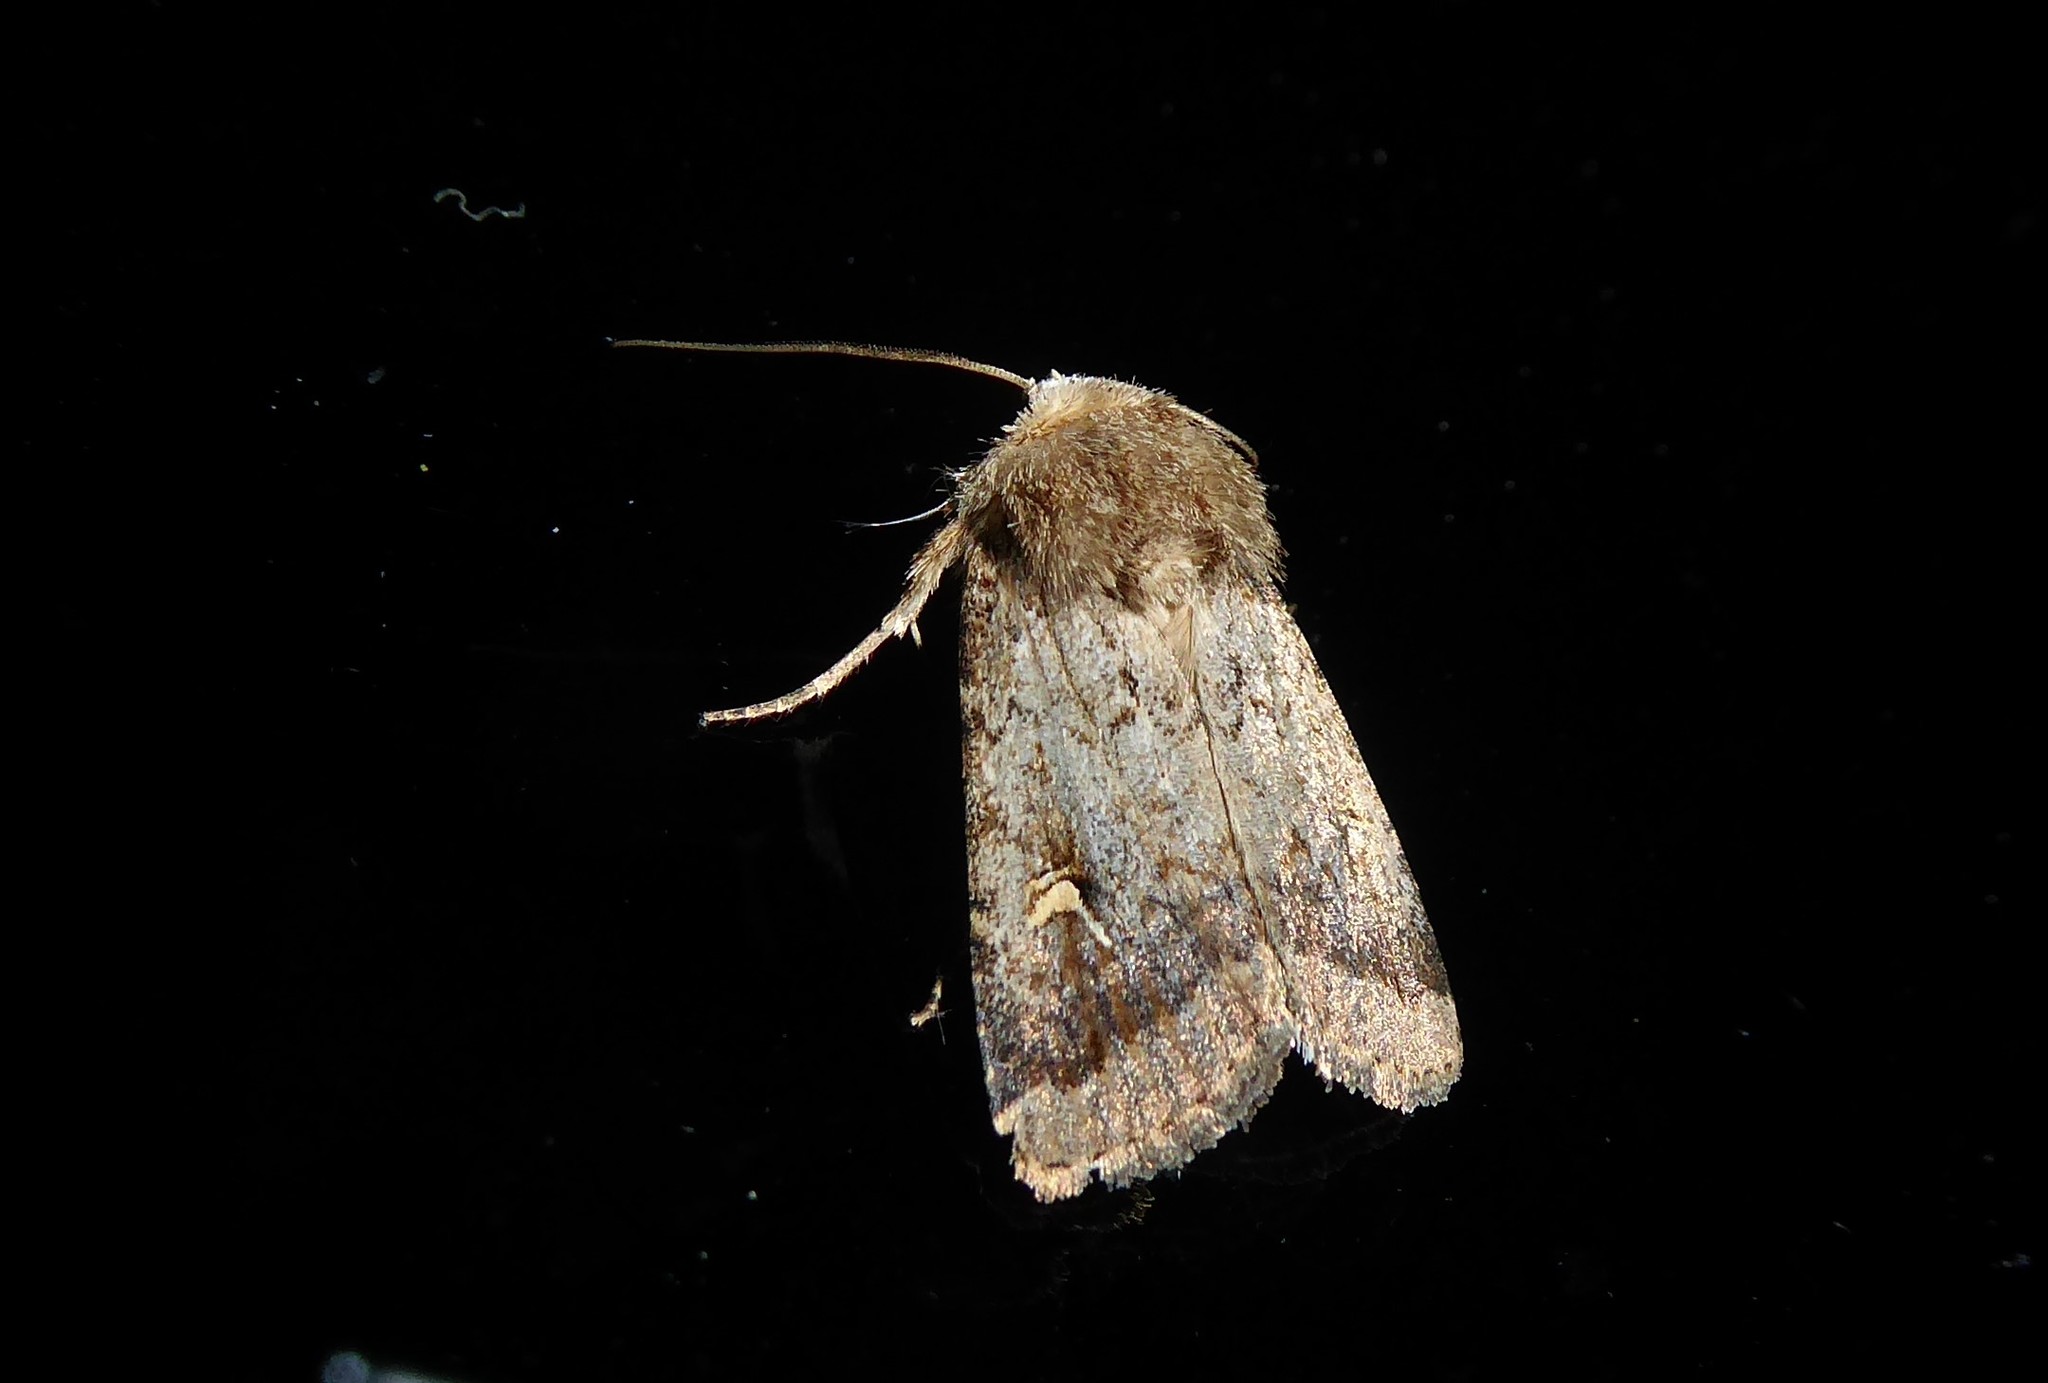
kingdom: Animalia
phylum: Arthropoda
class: Insecta
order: Lepidoptera
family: Noctuidae
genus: Proteuxoa
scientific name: Proteuxoa tetronycha
